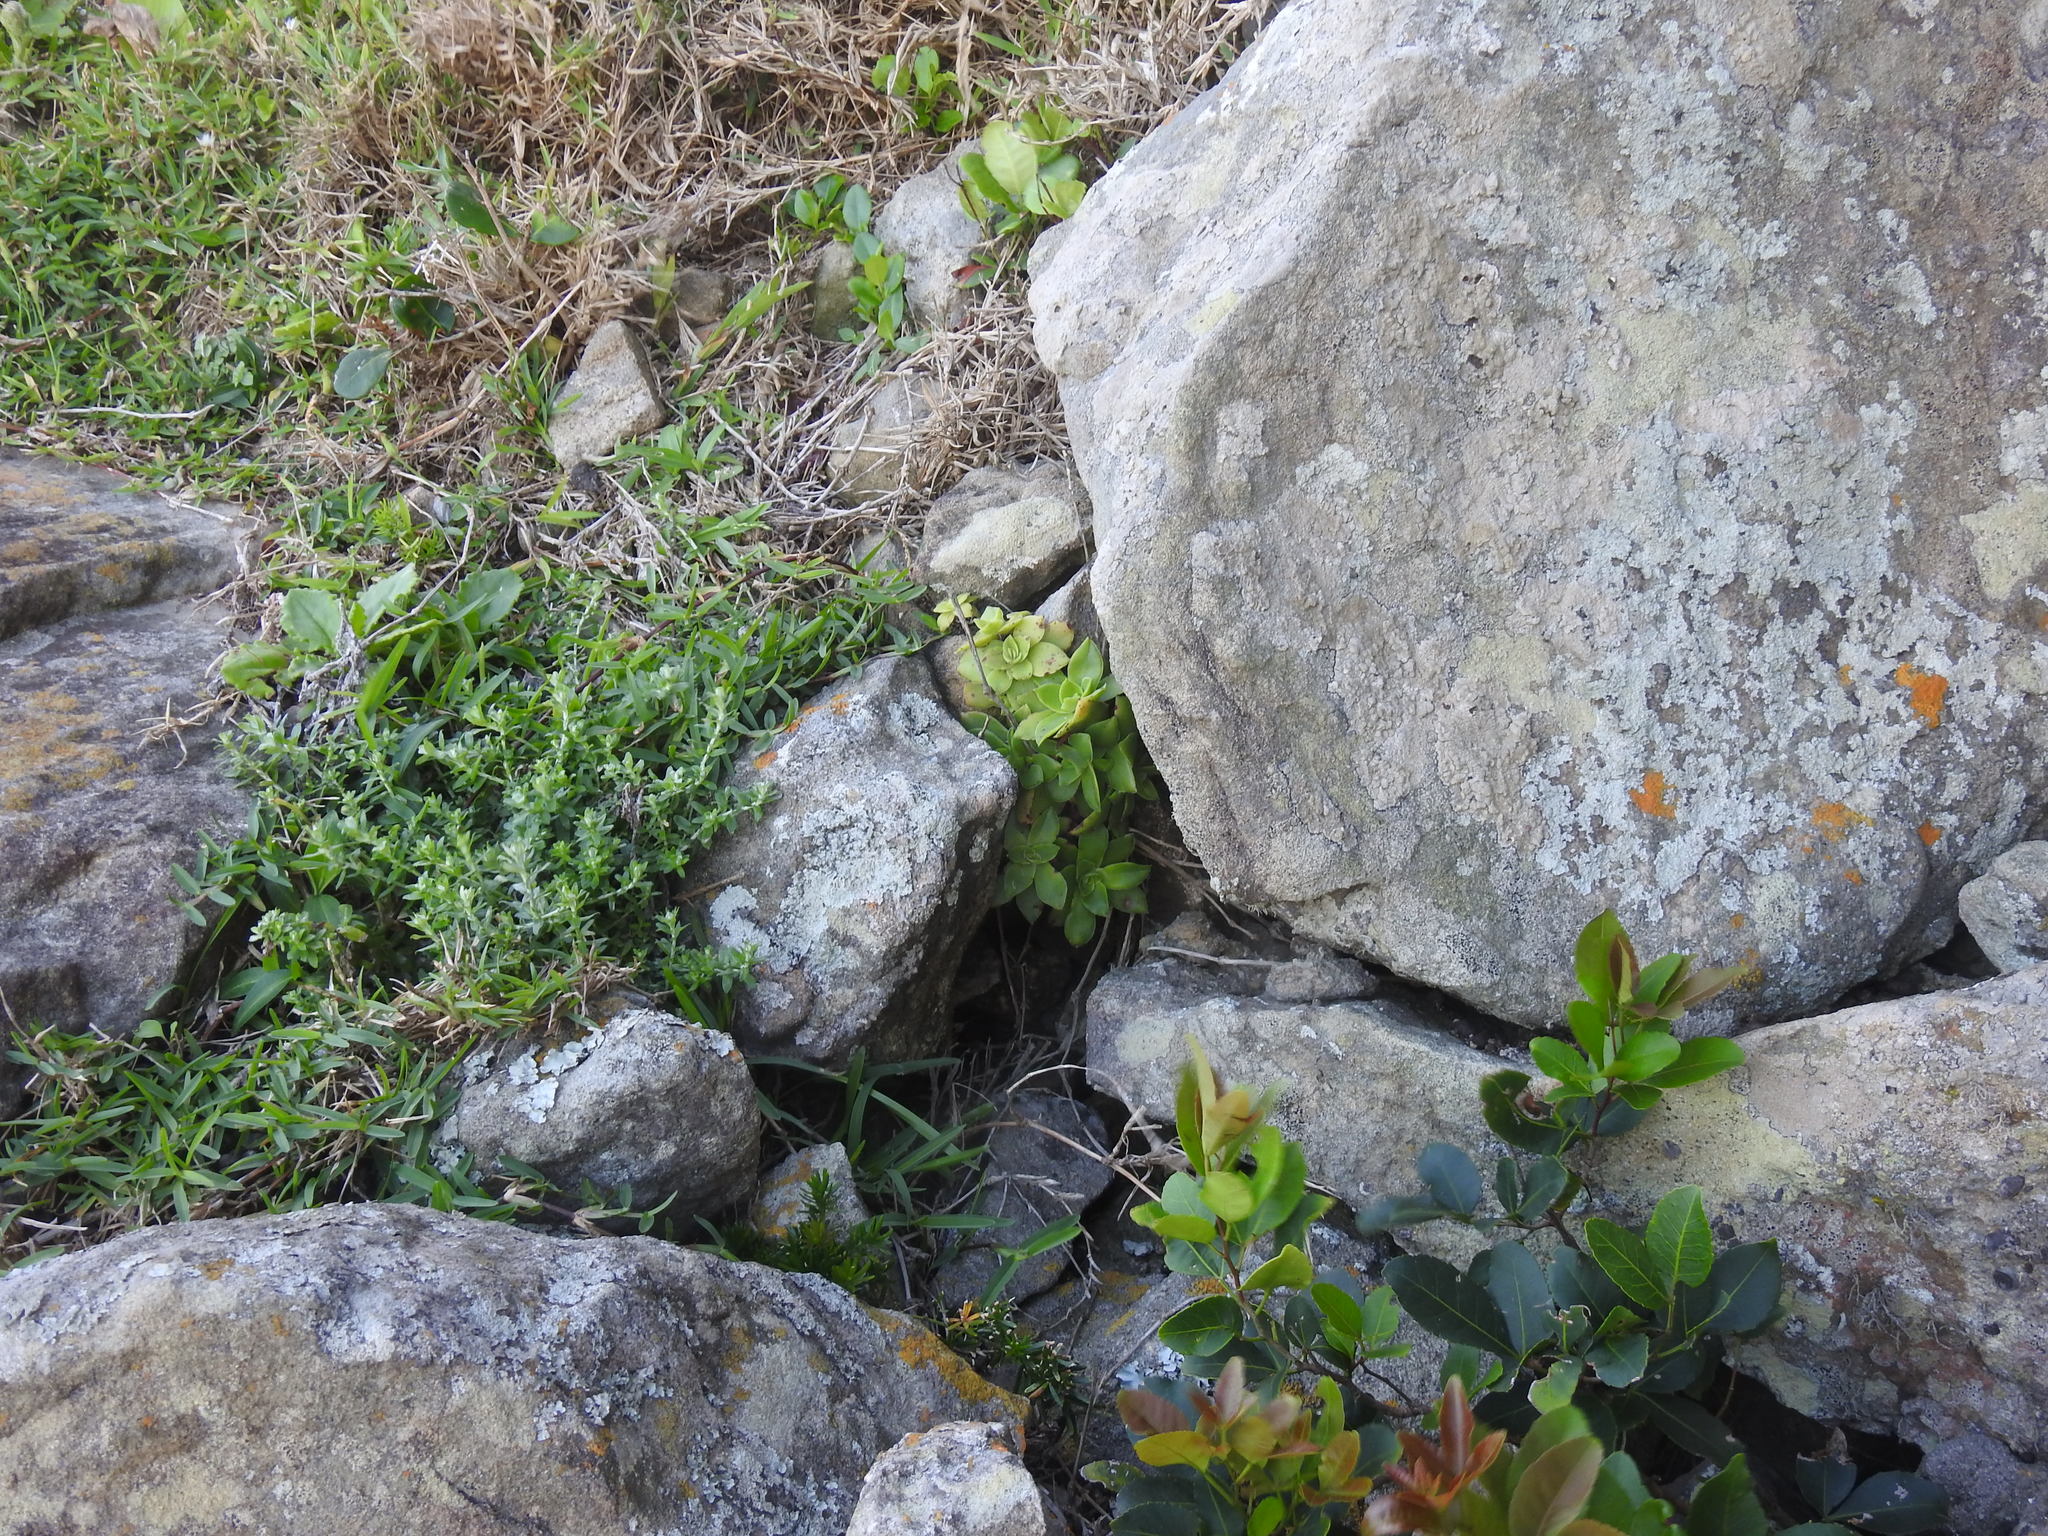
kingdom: Plantae
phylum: Tracheophyta
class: Magnoliopsida
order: Saxifragales
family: Crassulaceae
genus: Crassula
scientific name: Crassula orbicularis
